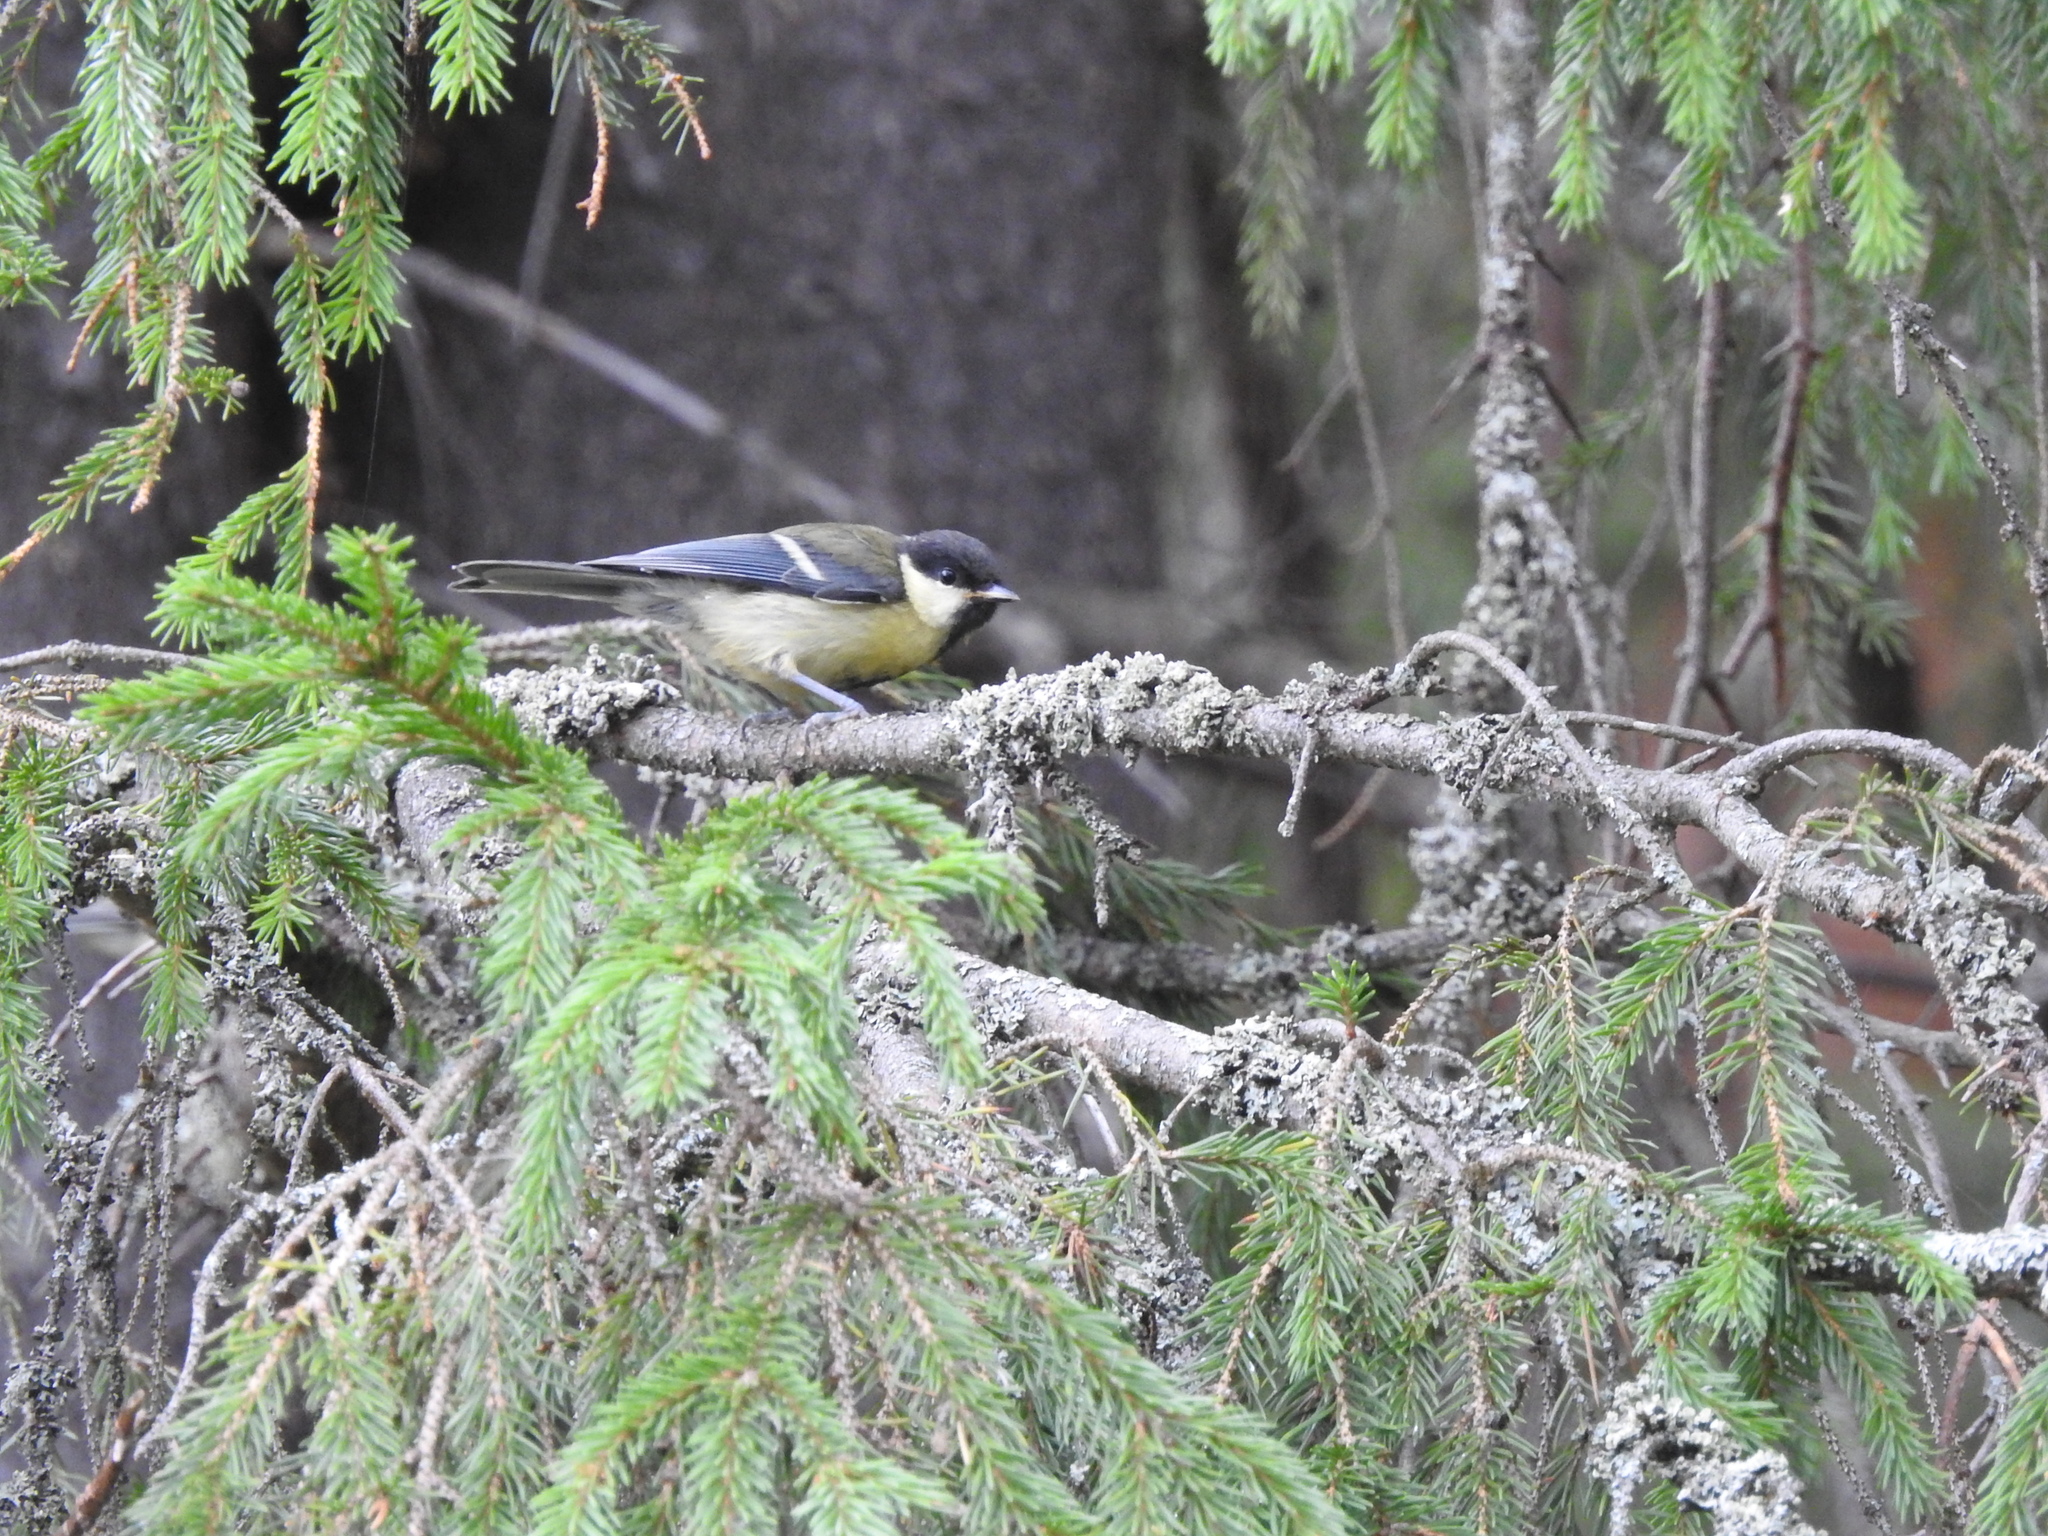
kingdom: Animalia
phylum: Chordata
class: Aves
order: Passeriformes
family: Paridae
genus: Parus
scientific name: Parus major
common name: Great tit
